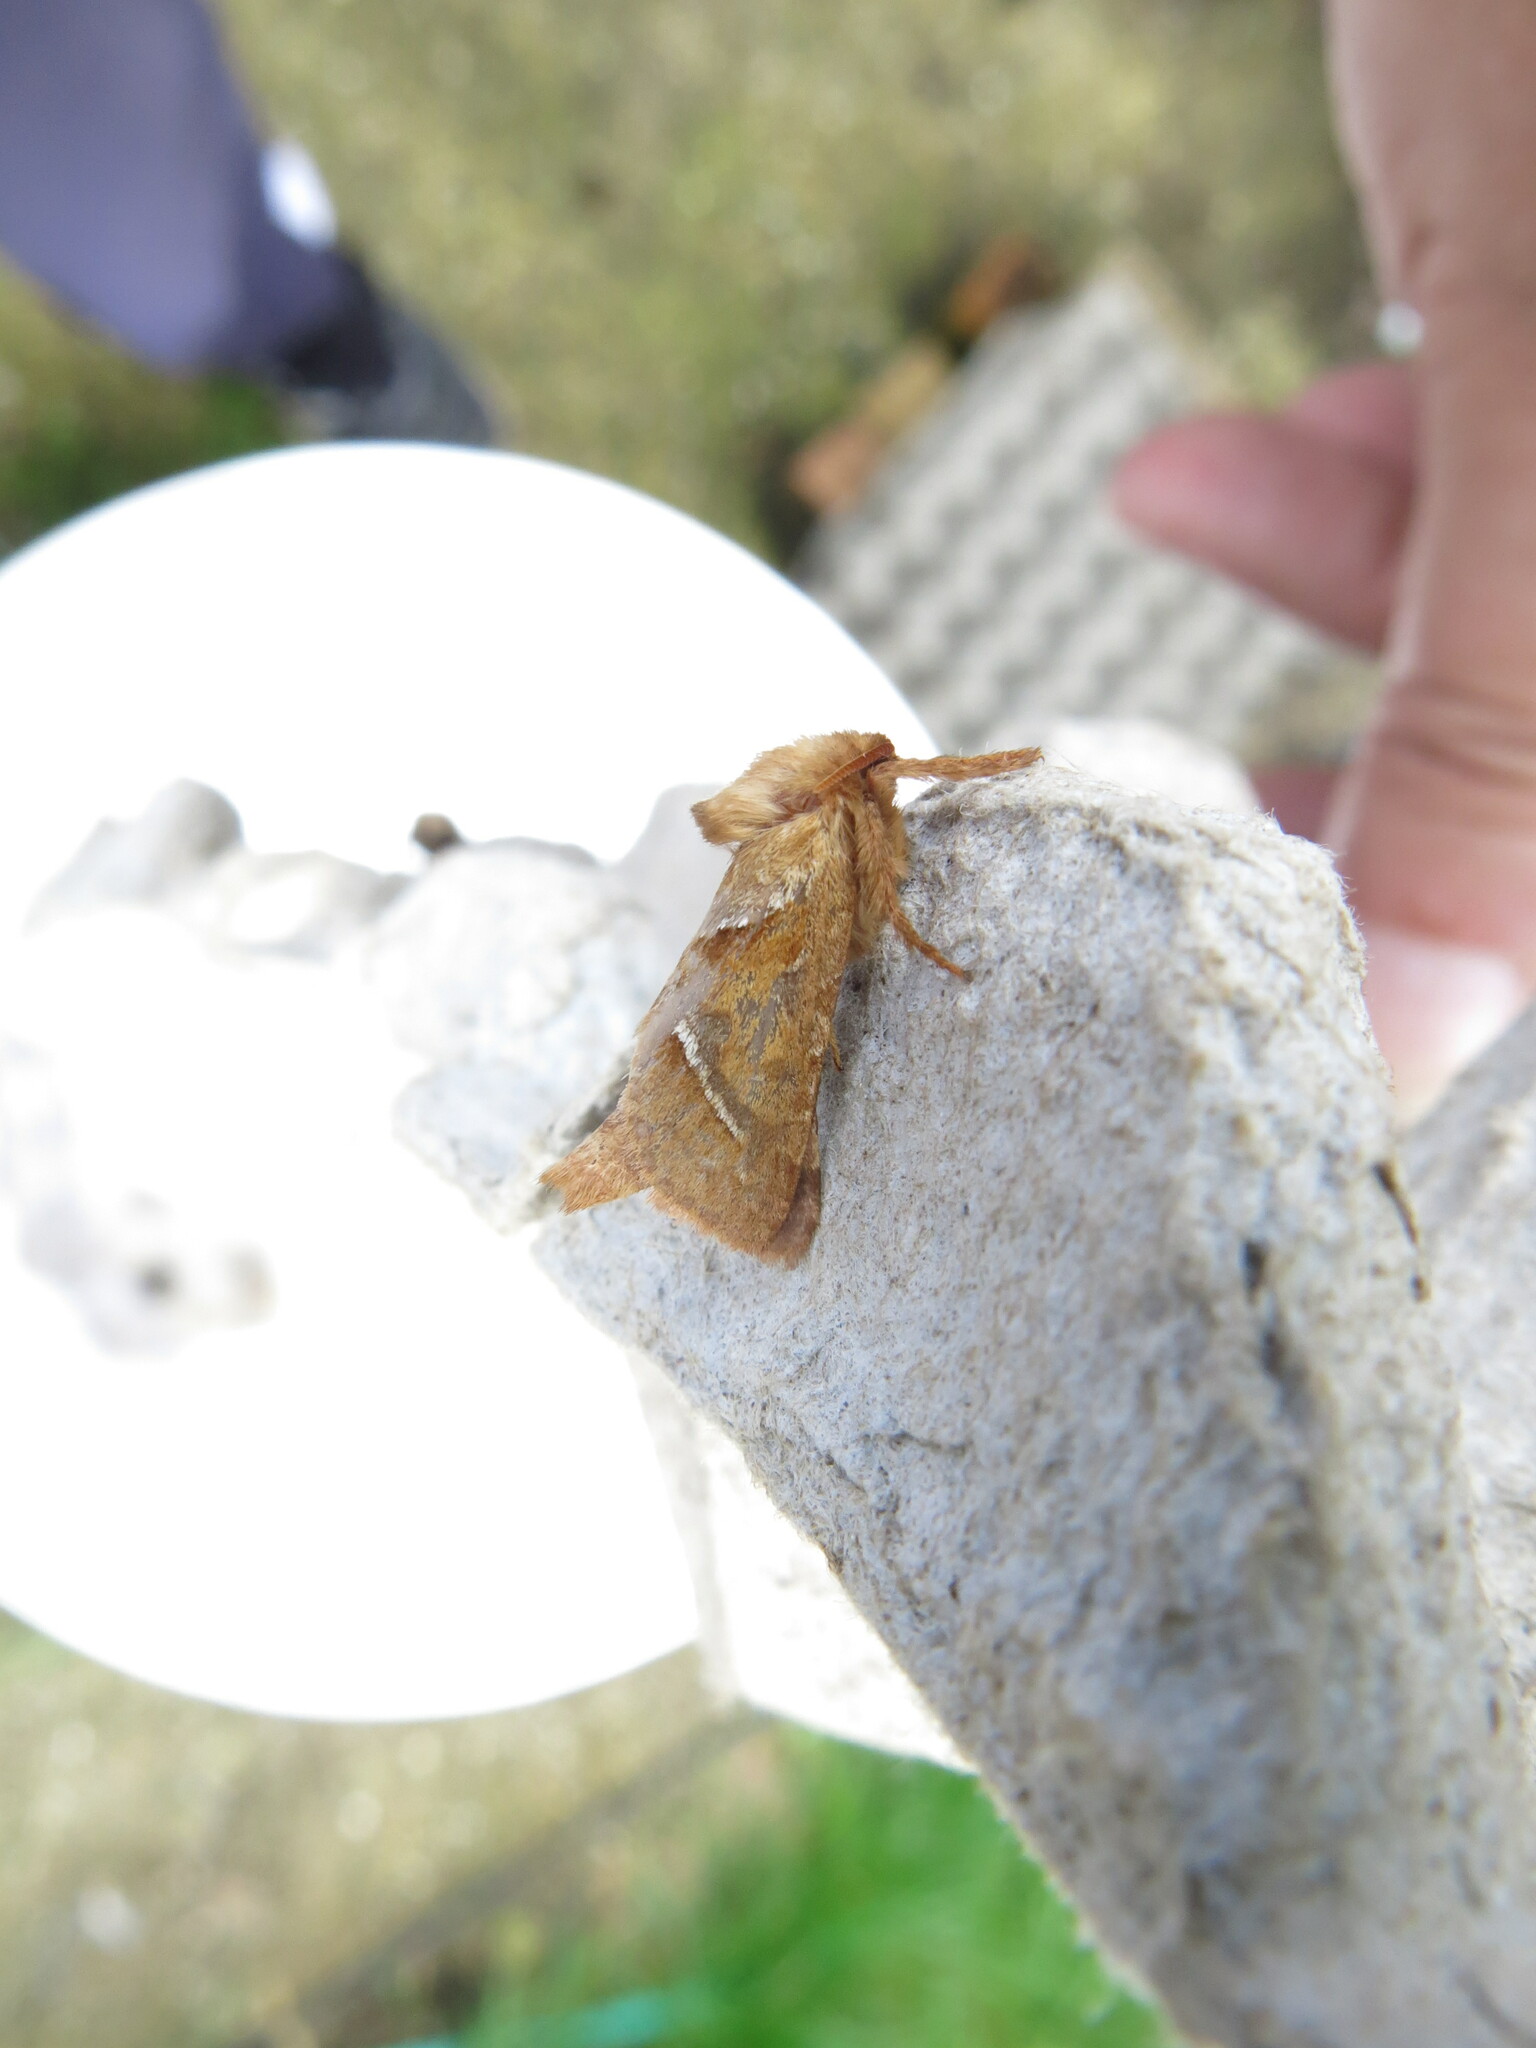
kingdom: Animalia
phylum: Arthropoda
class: Insecta
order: Lepidoptera
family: Hepialidae
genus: Triodia
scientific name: Triodia sylvina
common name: Orange swift
